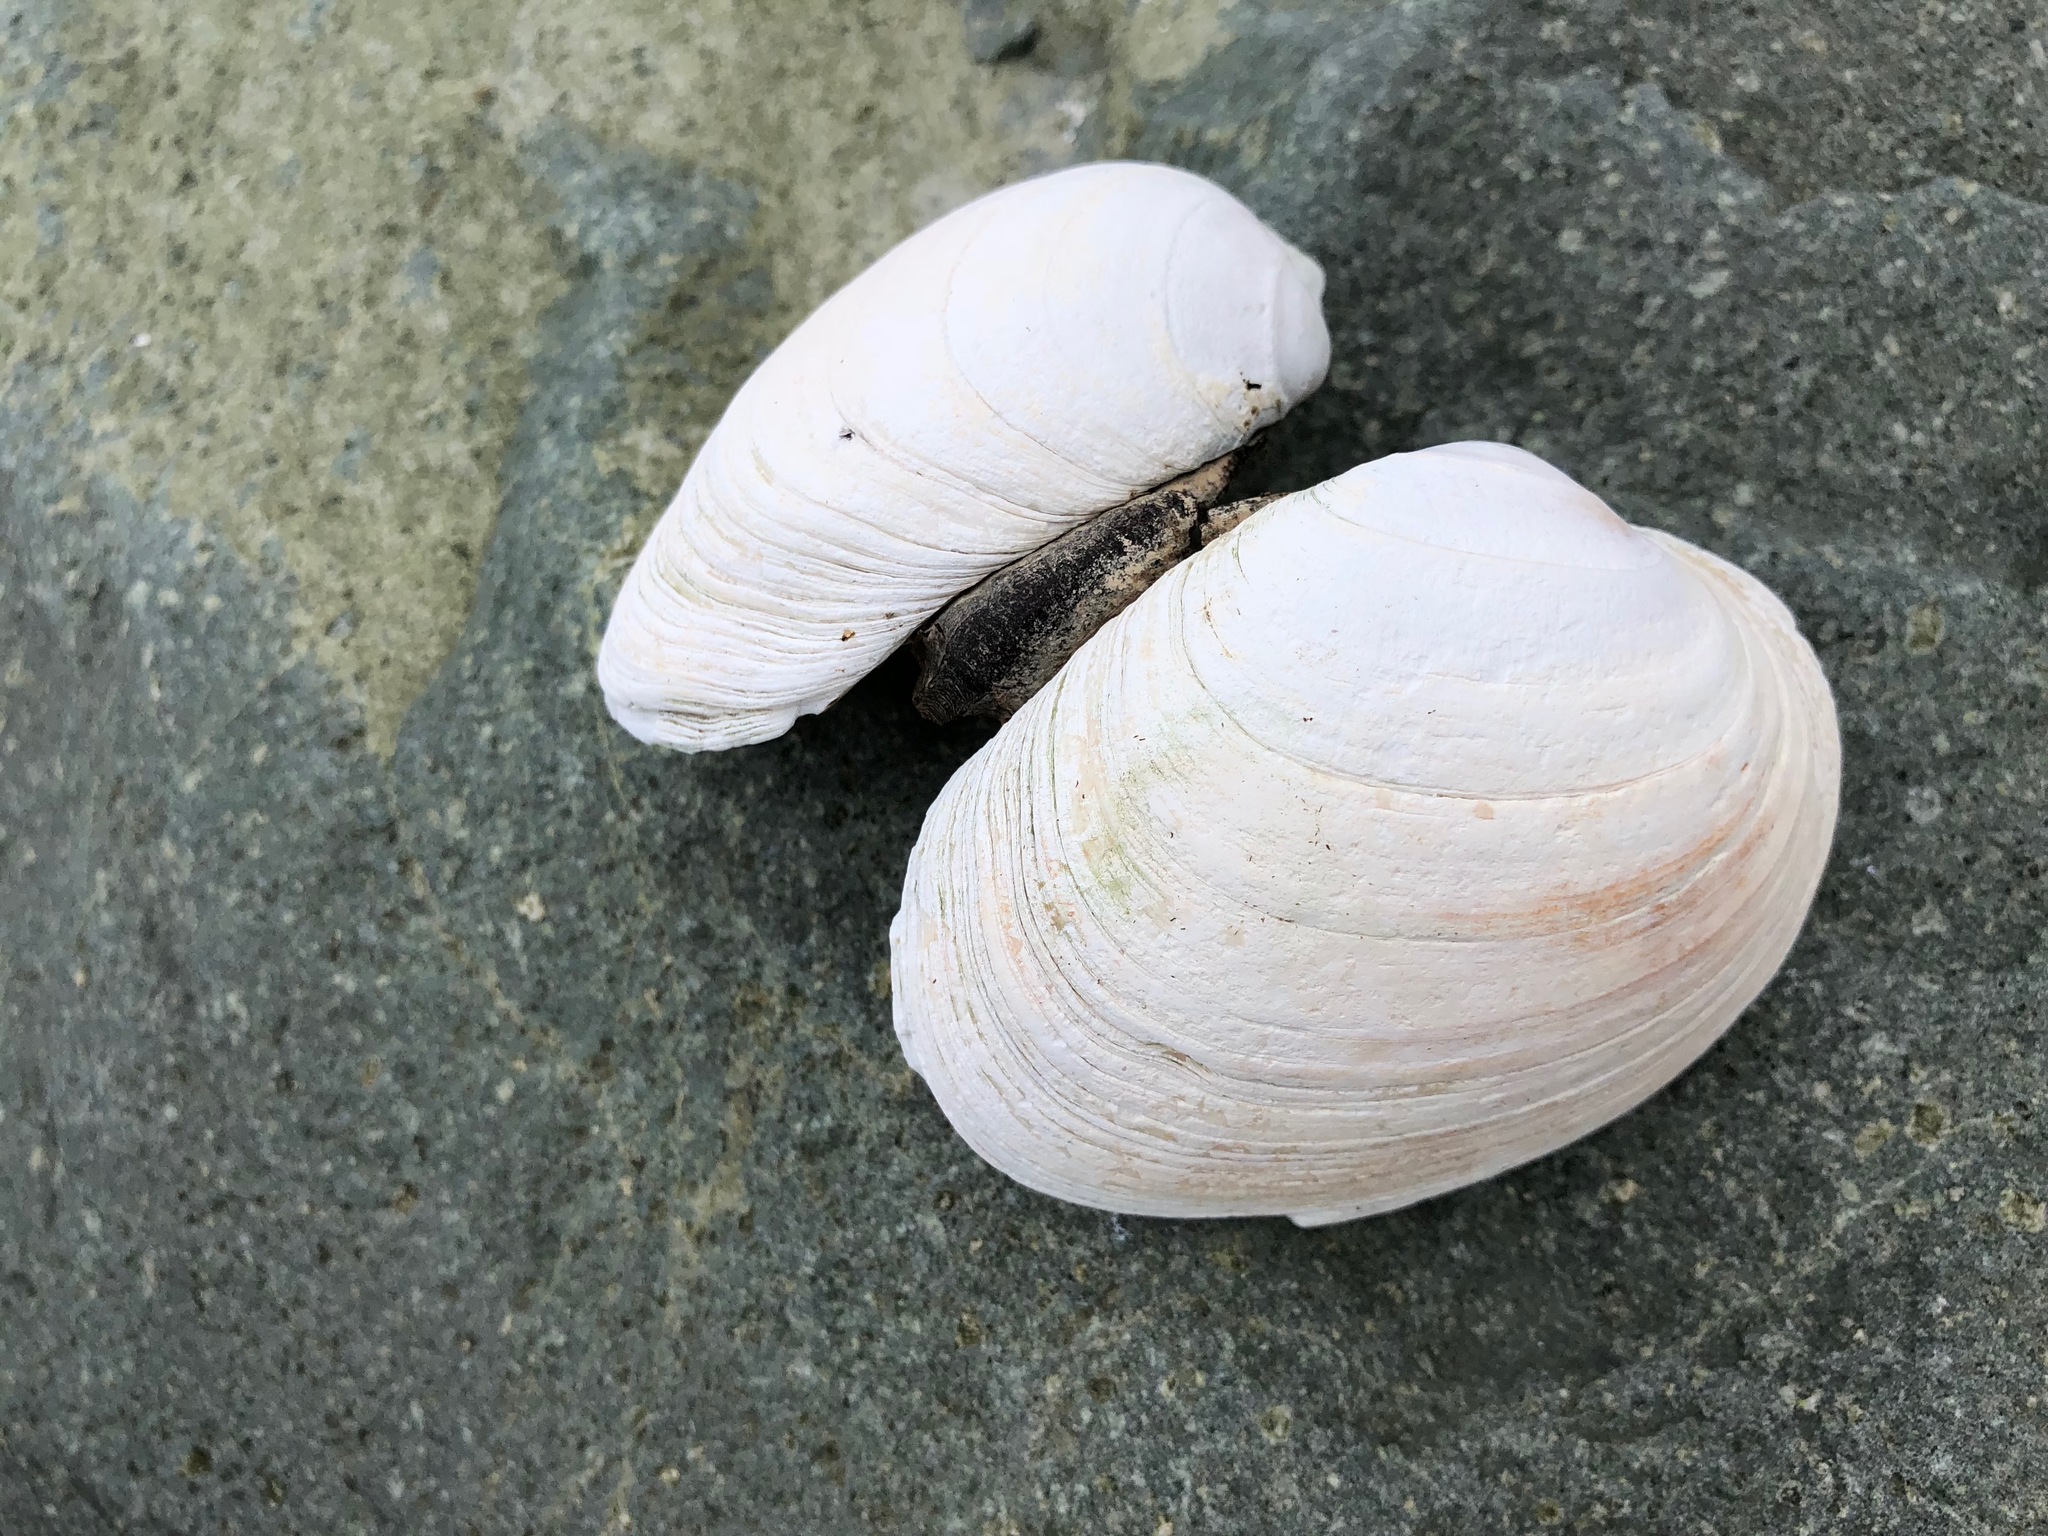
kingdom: Animalia
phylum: Mollusca
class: Bivalvia
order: Venerida
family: Veneridae
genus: Saxidomus
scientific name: Saxidomus gigantea
